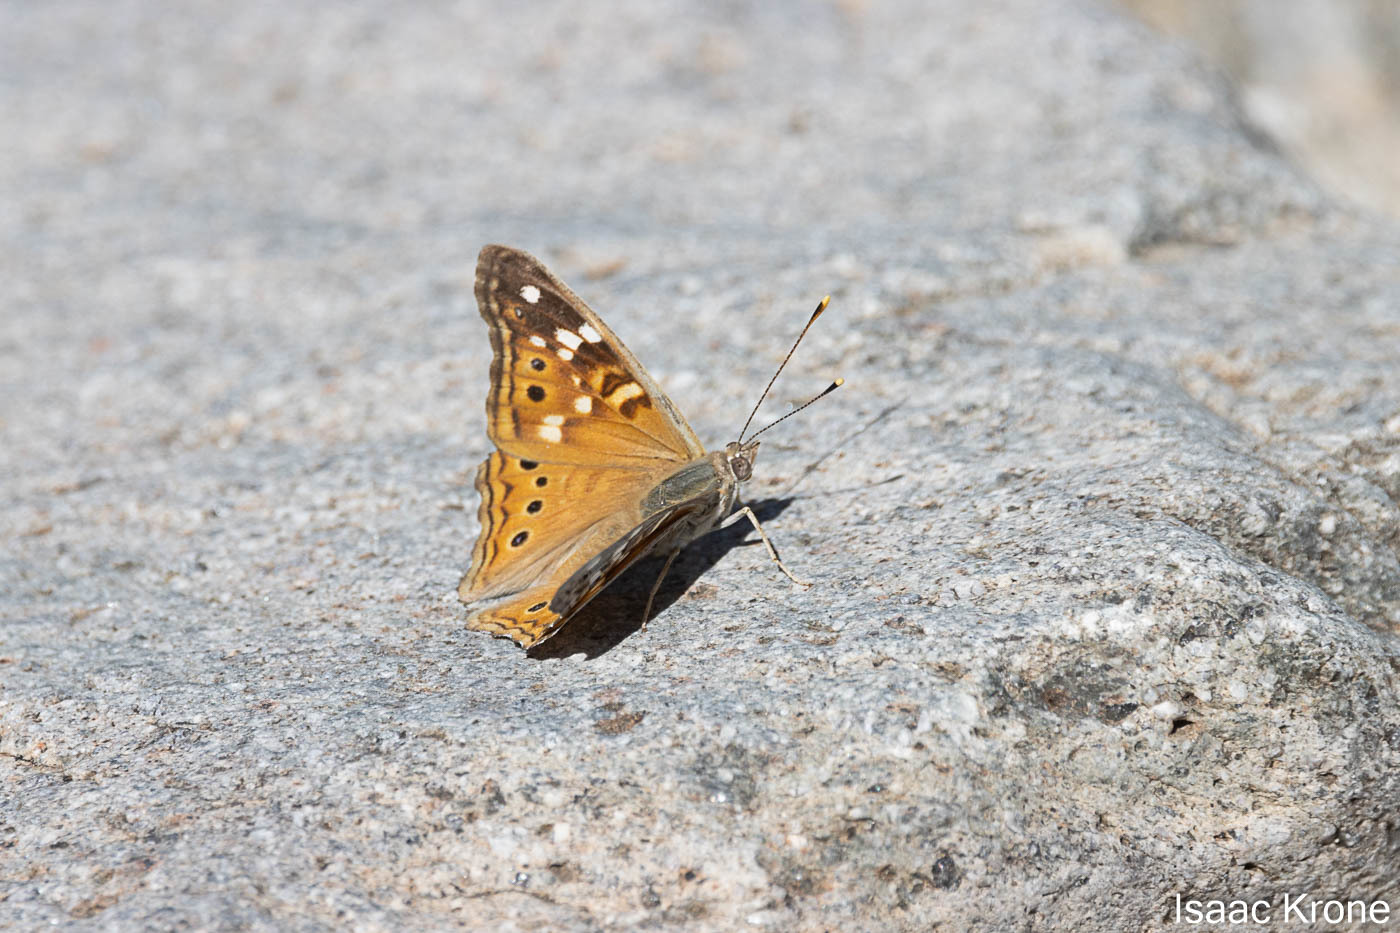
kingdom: Animalia
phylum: Arthropoda
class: Insecta
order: Lepidoptera
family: Nymphalidae
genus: Asterocampa
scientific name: Asterocampa leilia
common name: Empress leilia
